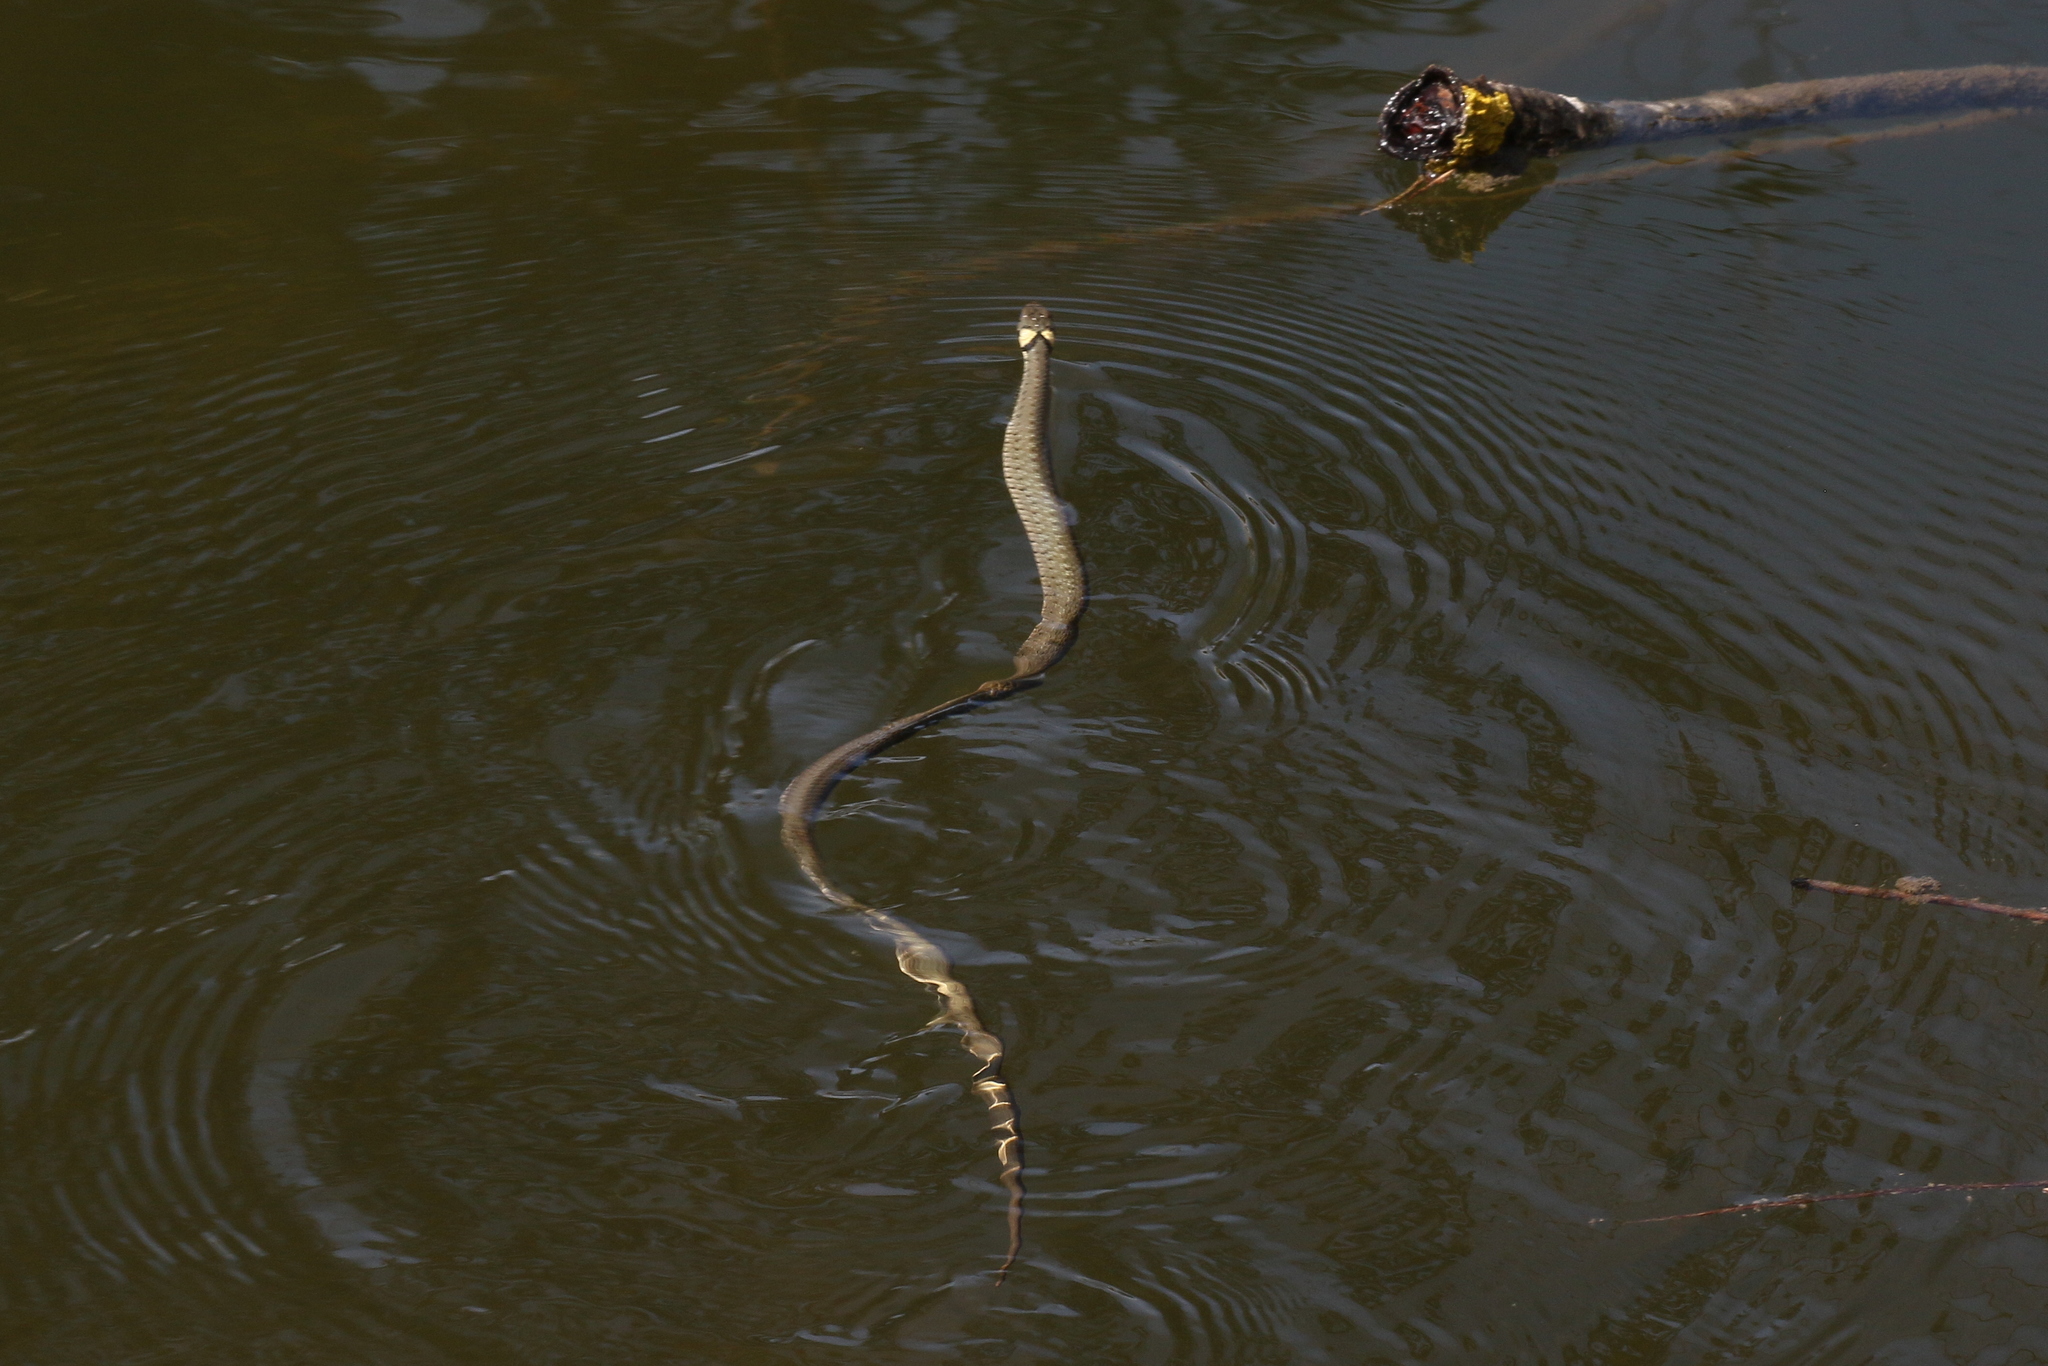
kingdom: Animalia
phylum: Chordata
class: Squamata
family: Colubridae
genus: Natrix
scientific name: Natrix natrix
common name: Grass snake
